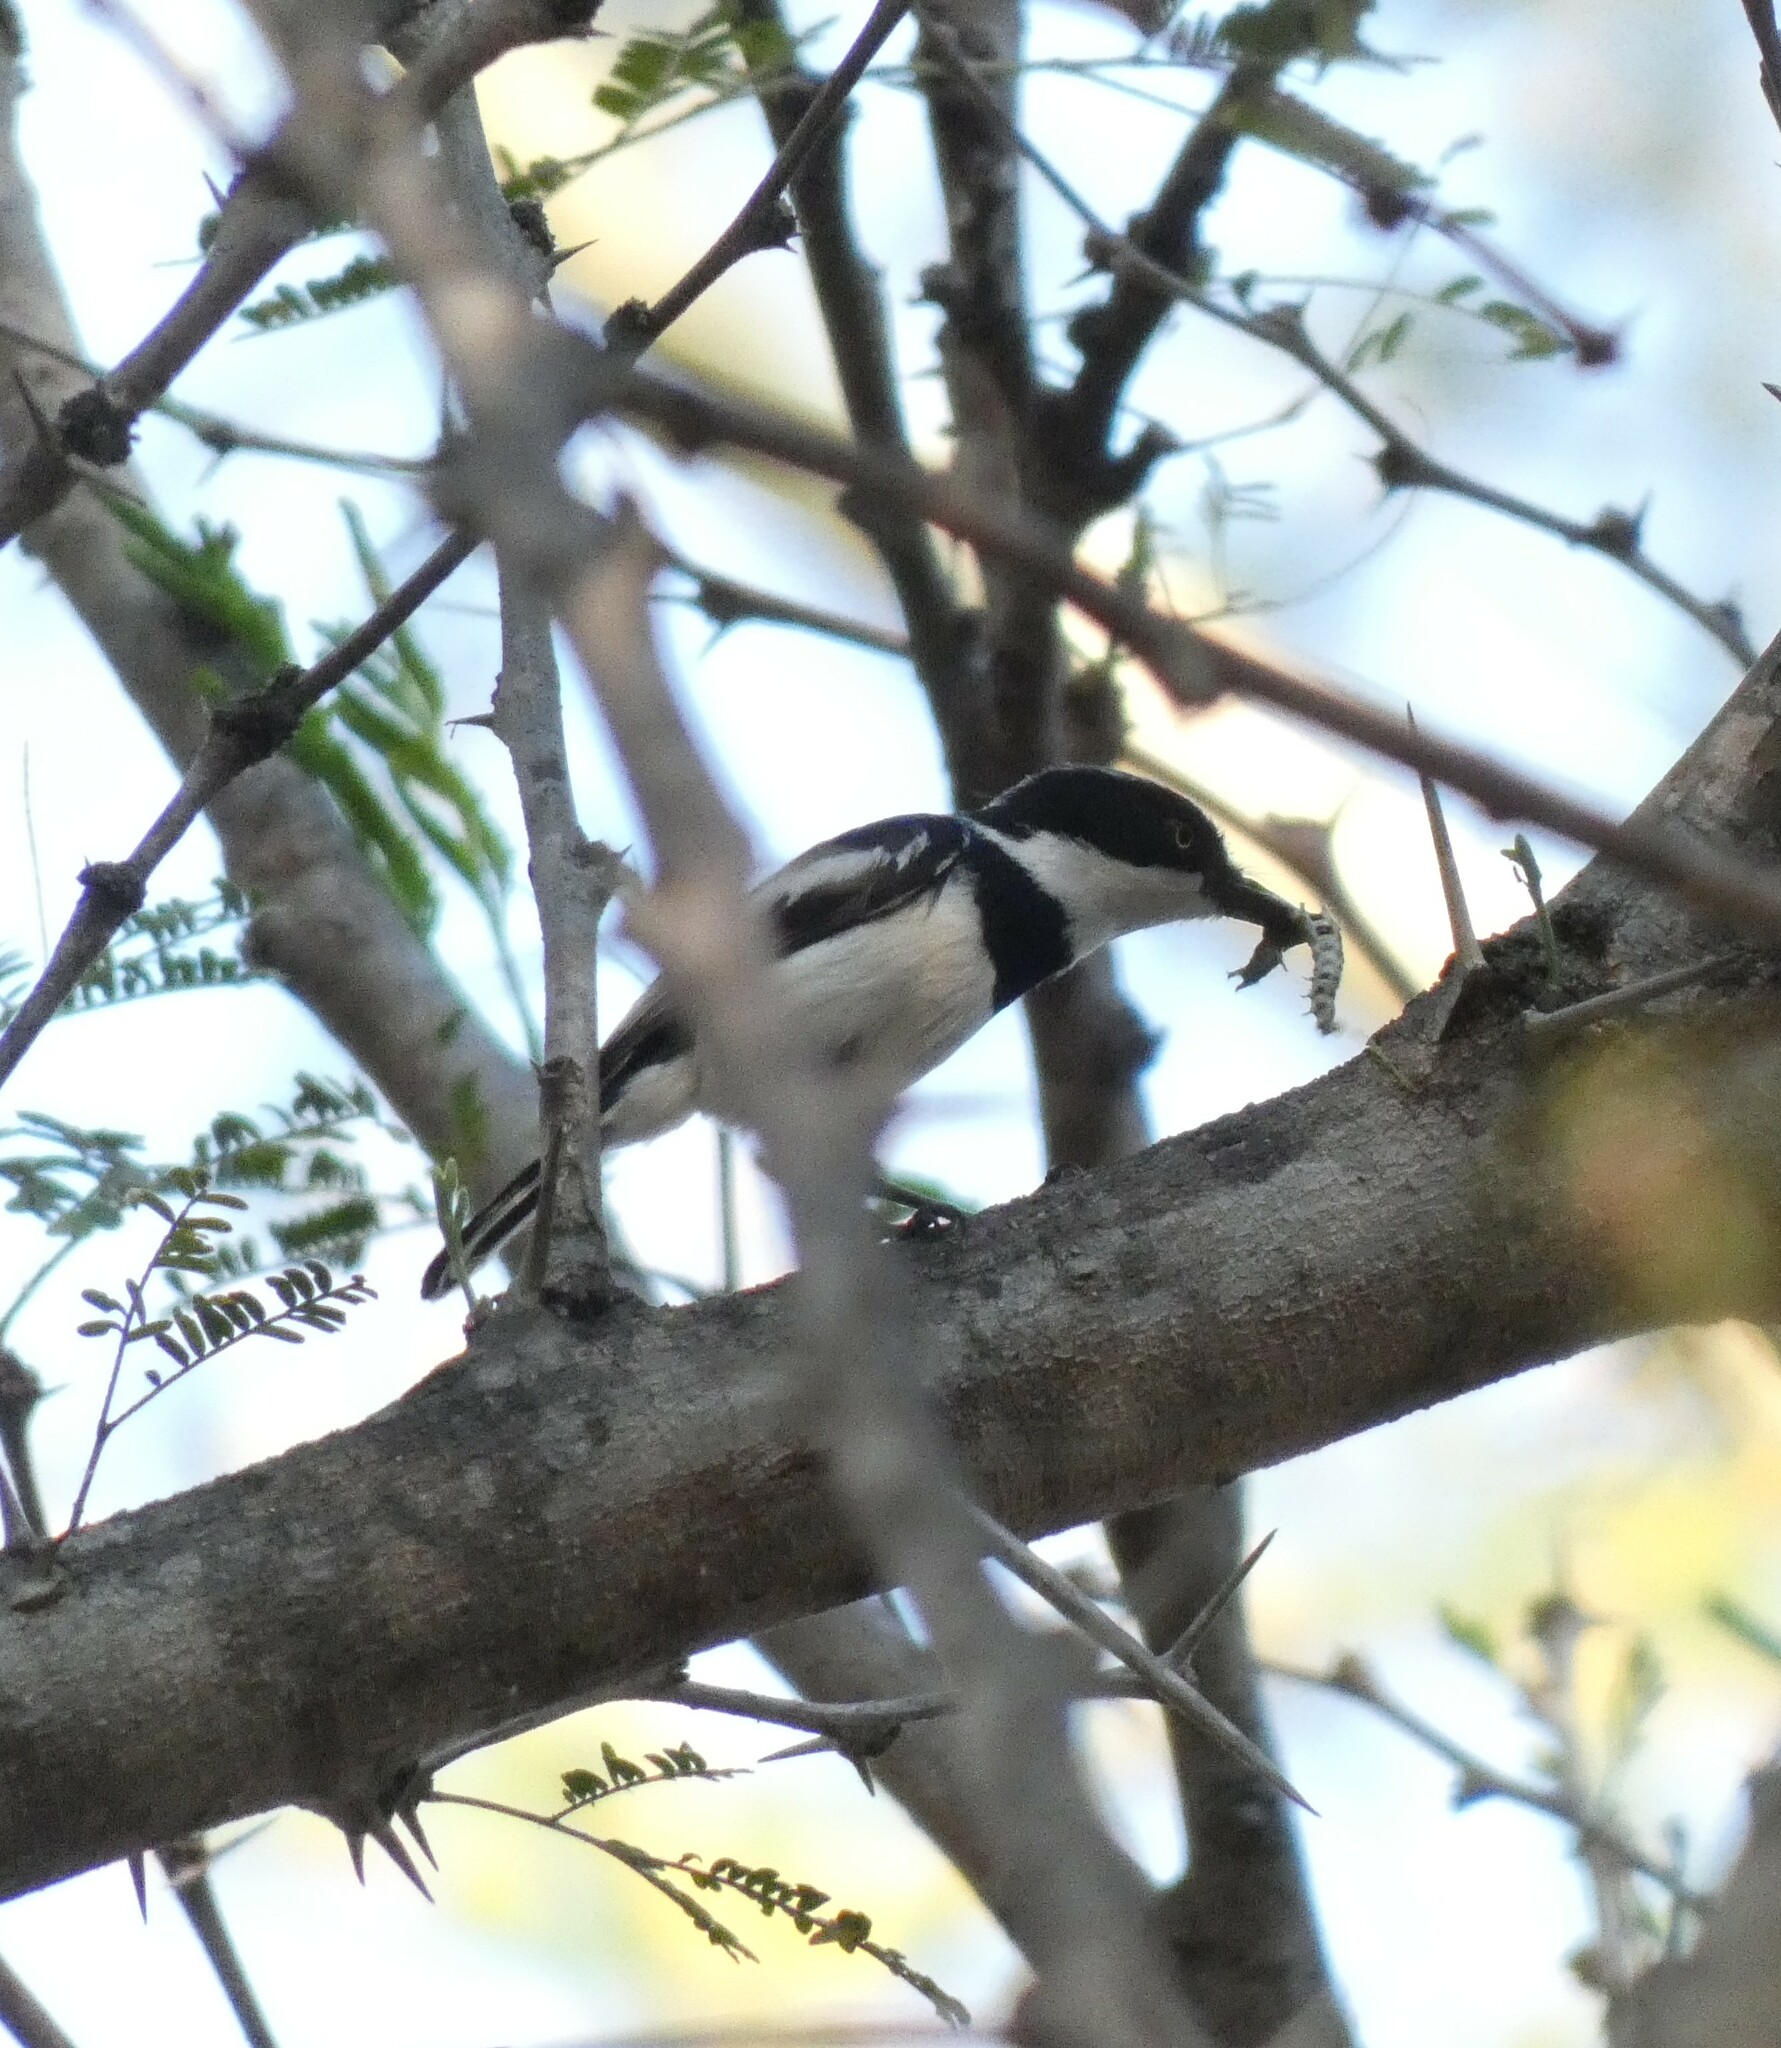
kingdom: Animalia
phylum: Chordata
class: Aves
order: Passeriformes
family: Platysteiridae
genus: Batis
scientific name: Batis molitor
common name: Chinspot batis
